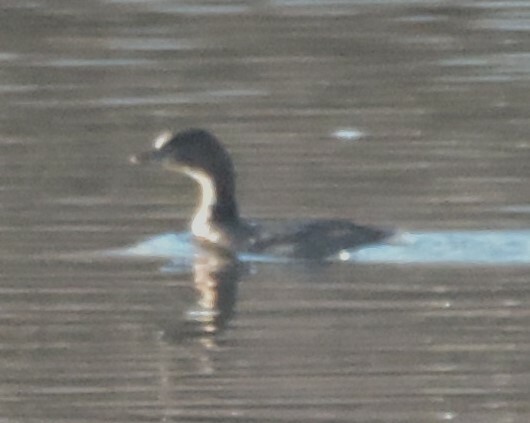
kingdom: Animalia
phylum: Chordata
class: Aves
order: Podicipediformes
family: Podicipedidae
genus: Podilymbus
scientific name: Podilymbus podiceps
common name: Pied-billed grebe
